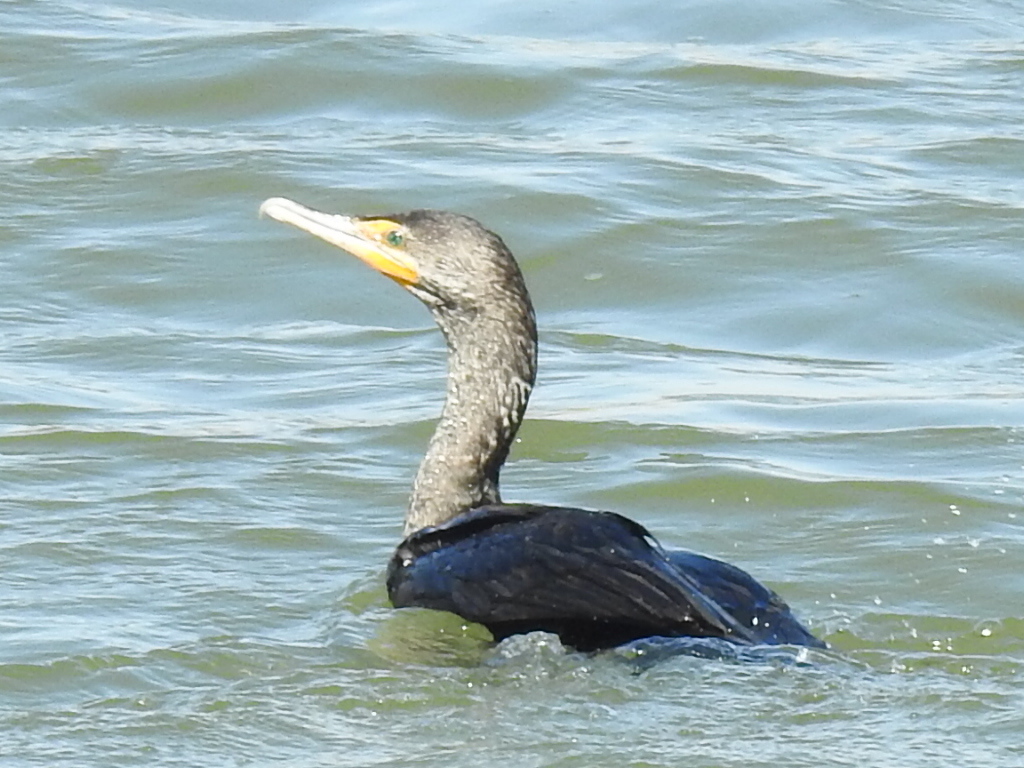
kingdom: Animalia
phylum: Chordata
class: Aves
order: Suliformes
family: Phalacrocoracidae
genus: Phalacrocorax
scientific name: Phalacrocorax auritus
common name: Double-crested cormorant
